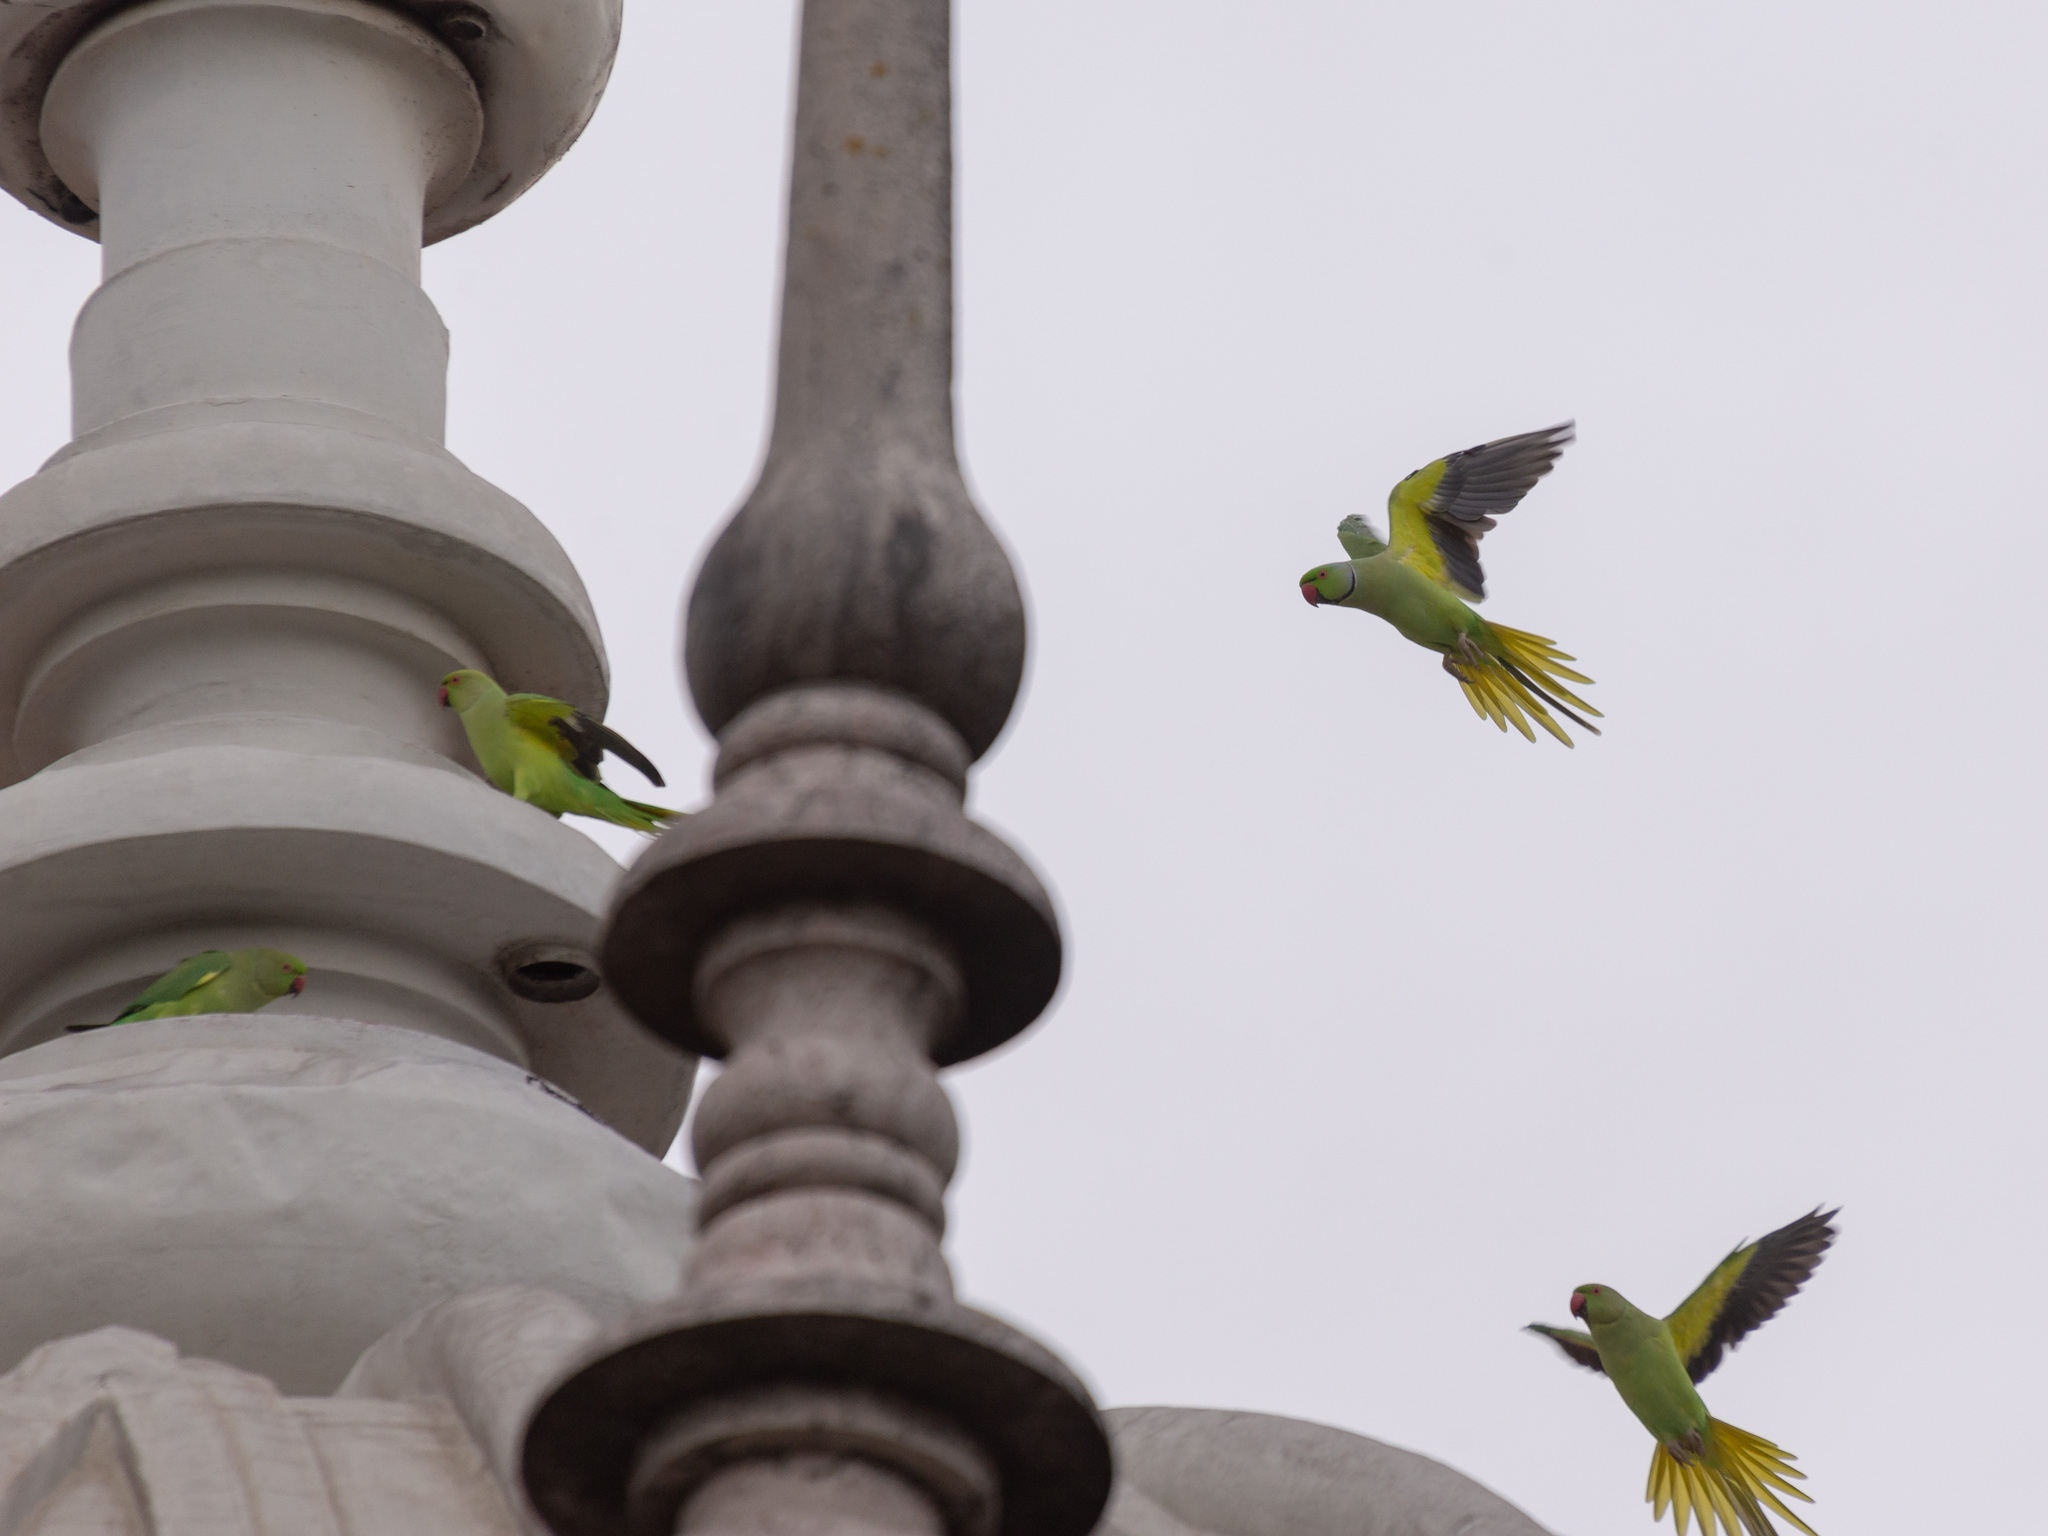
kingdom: Animalia
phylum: Chordata
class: Aves
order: Psittaciformes
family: Psittacidae
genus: Psittacula
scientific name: Psittacula krameri
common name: Rose-ringed parakeet
